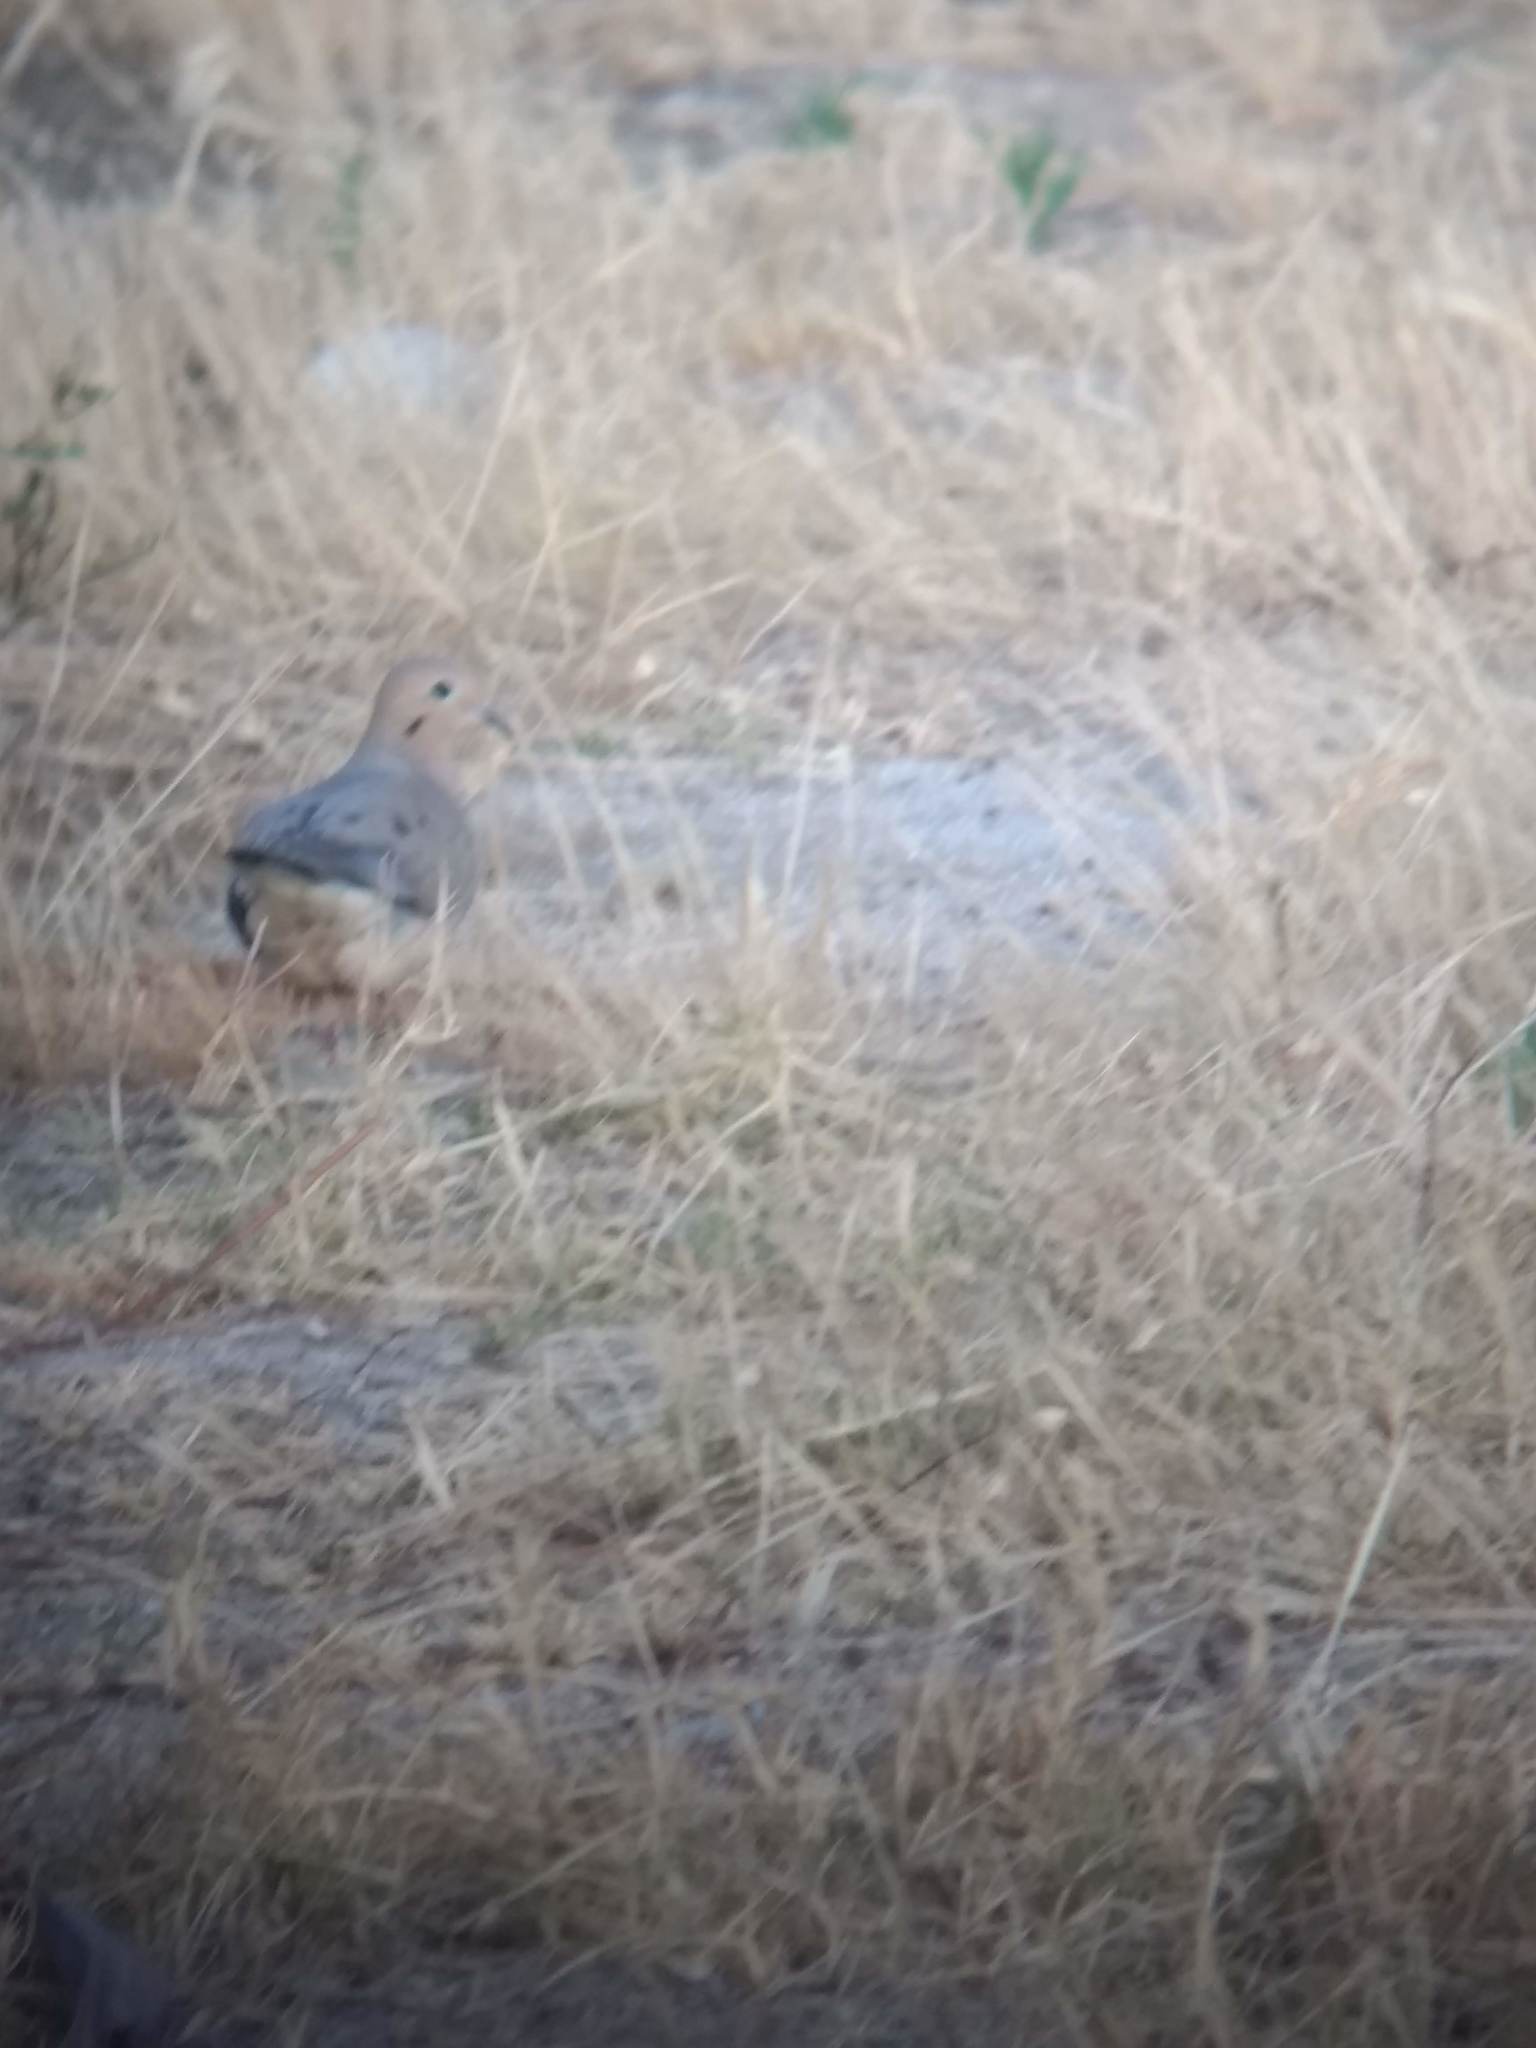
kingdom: Animalia
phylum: Chordata
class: Aves
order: Columbiformes
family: Columbidae
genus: Zenaida
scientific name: Zenaida macroura
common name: Mourning dove
